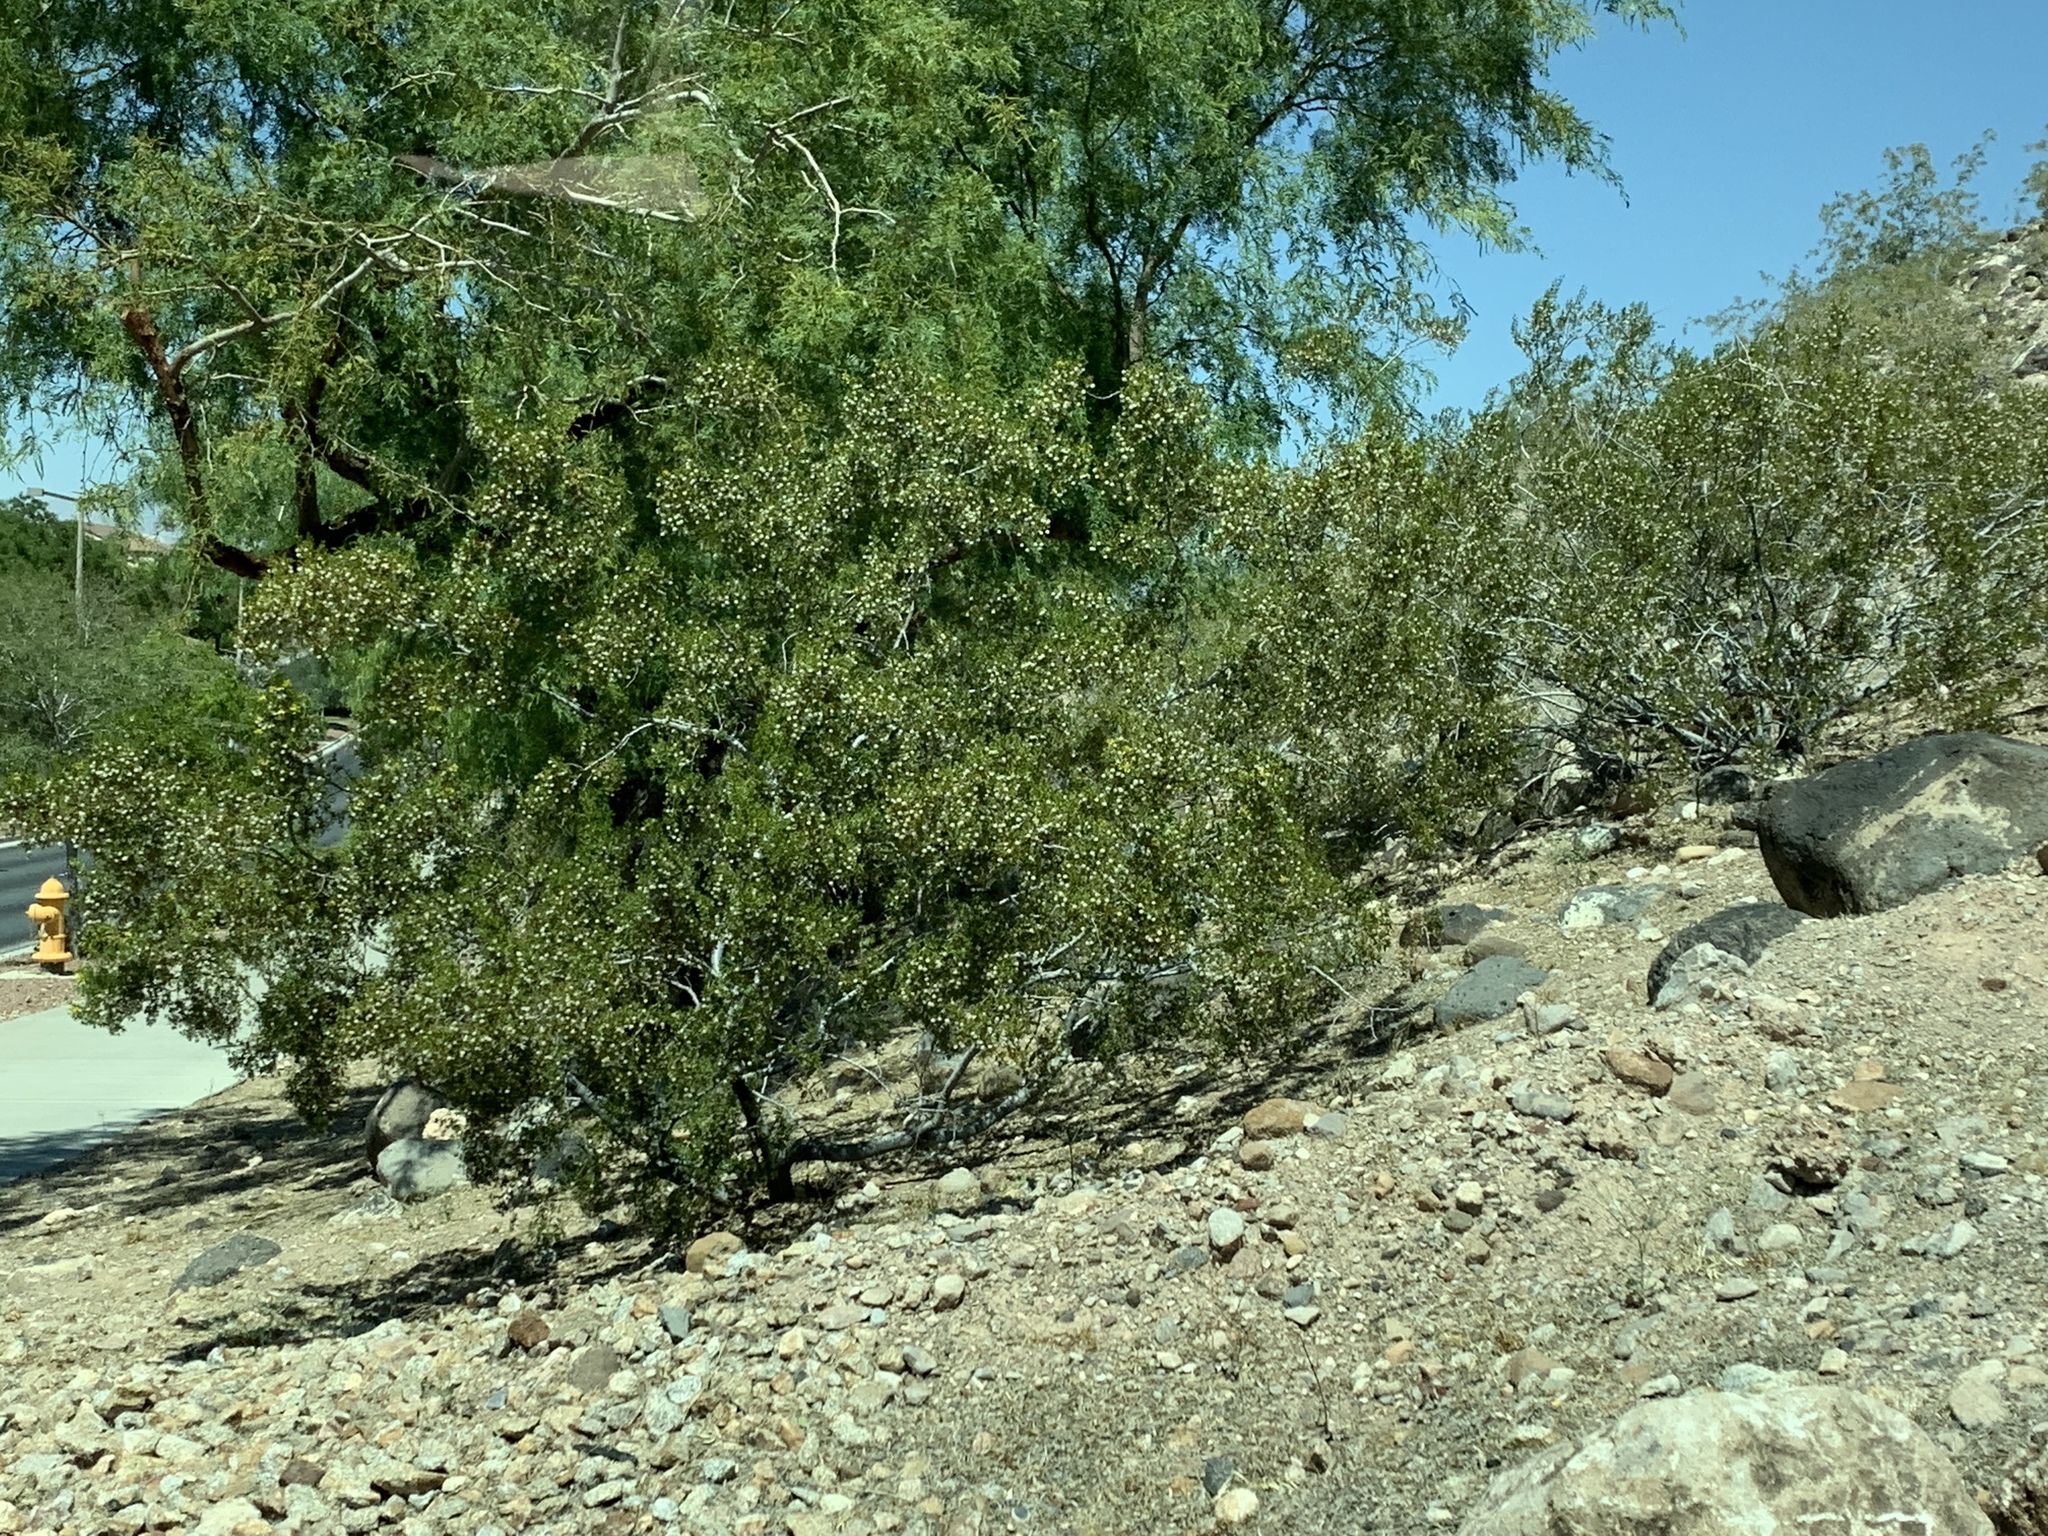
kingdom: Plantae
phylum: Tracheophyta
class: Magnoliopsida
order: Zygophyllales
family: Zygophyllaceae
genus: Larrea
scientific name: Larrea tridentata
